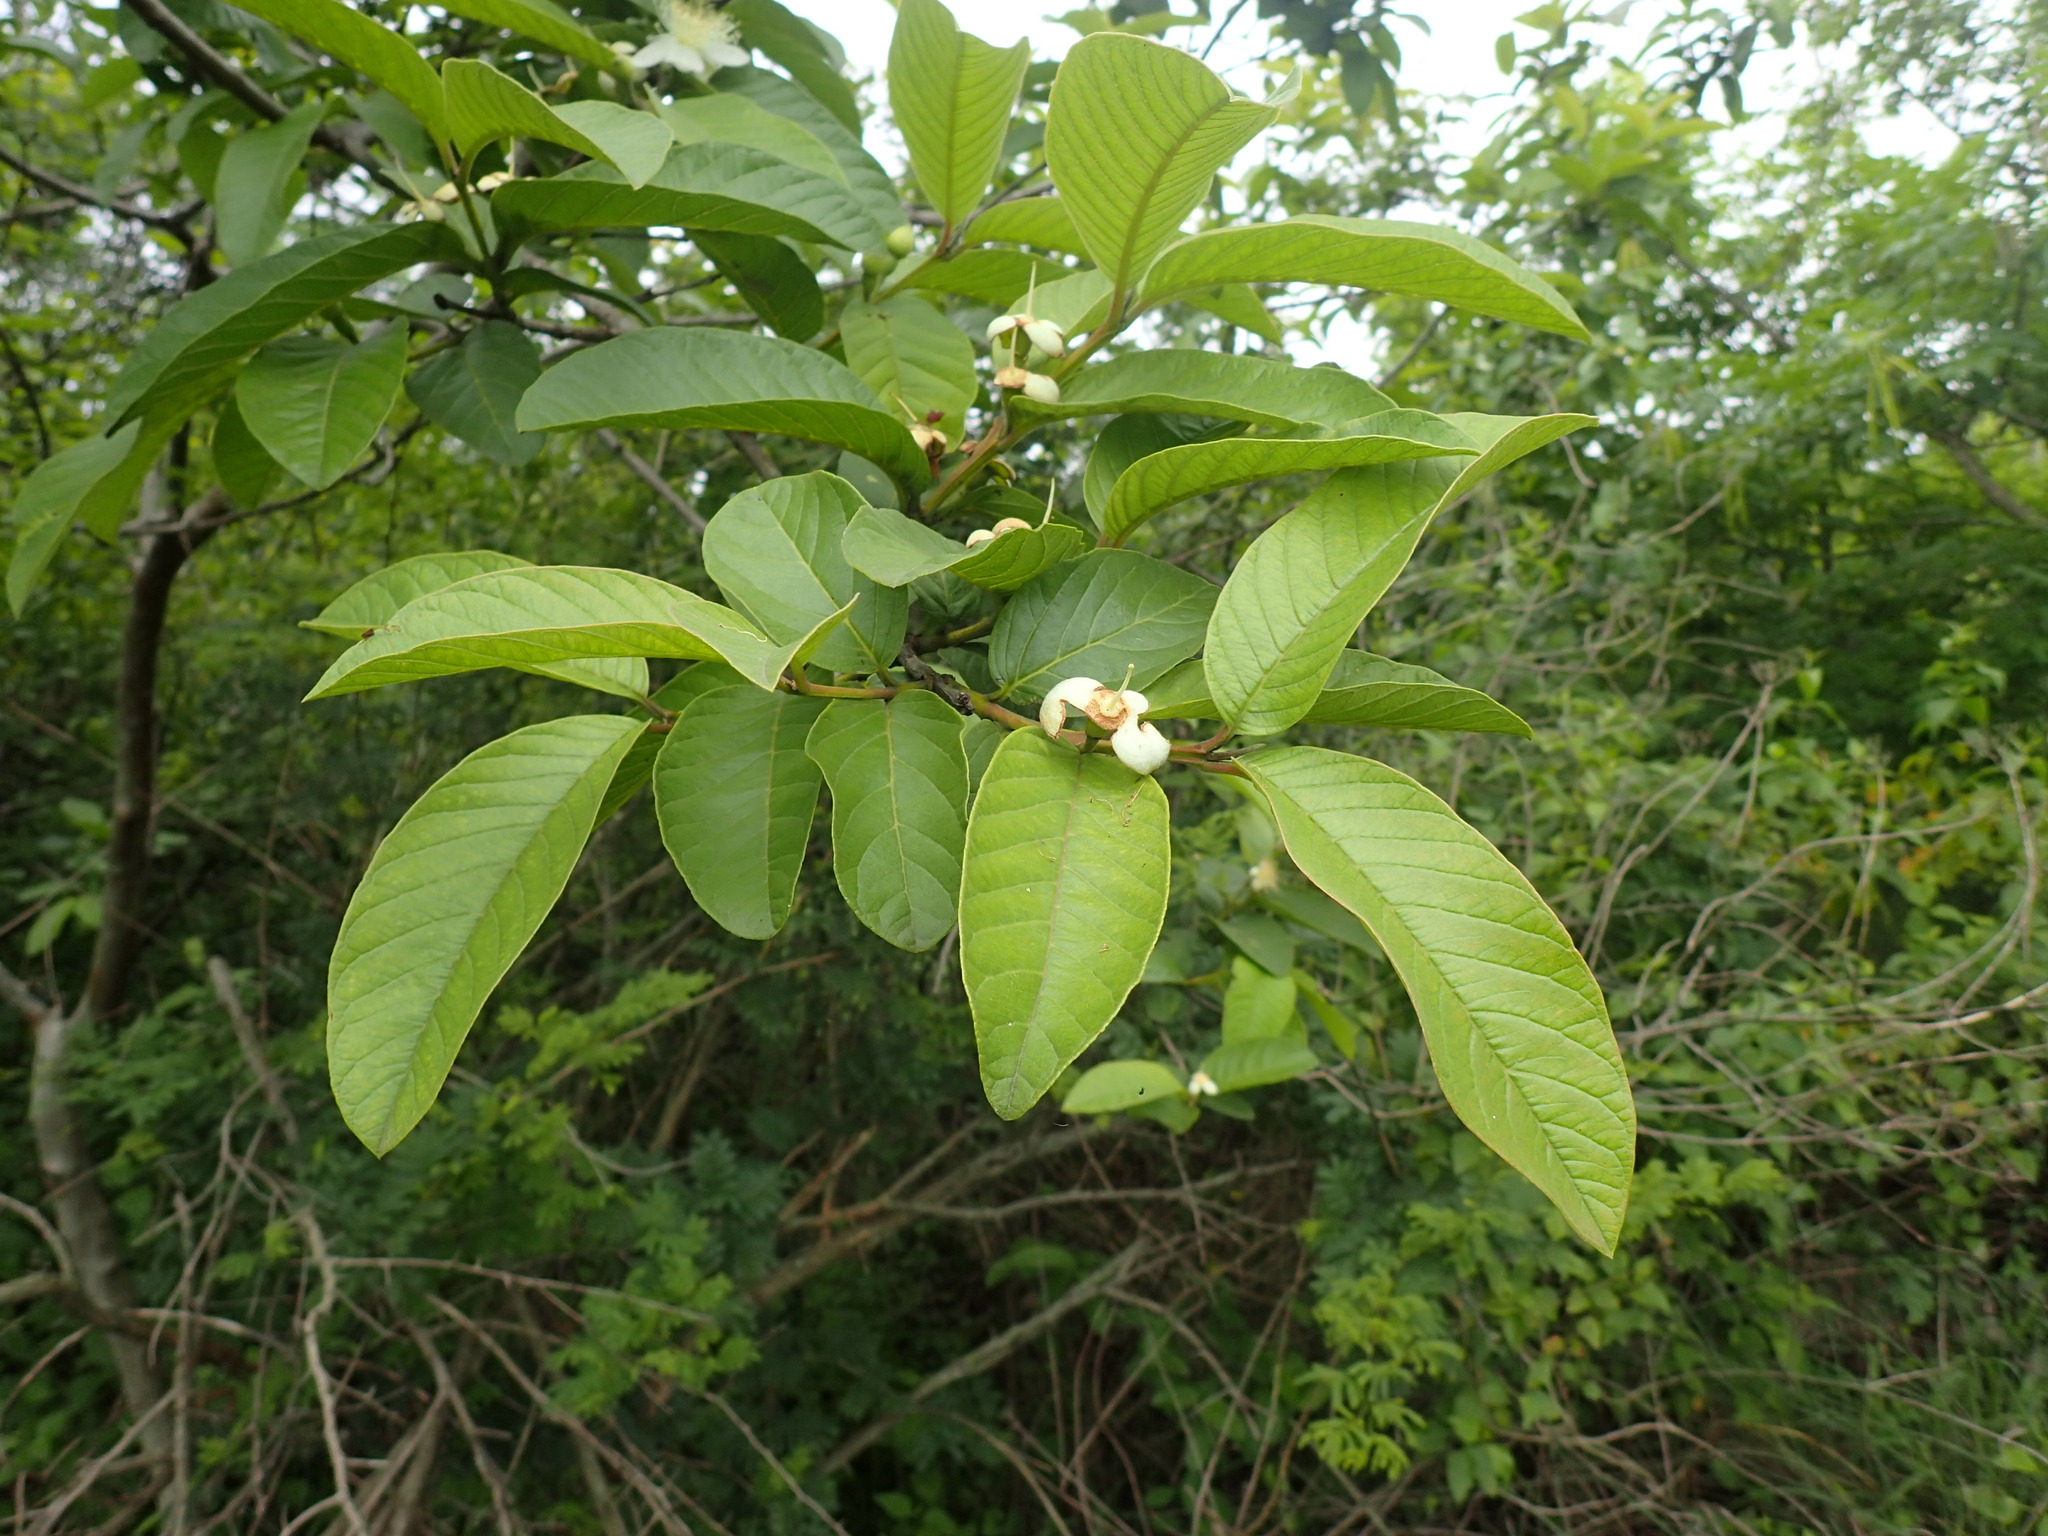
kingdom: Plantae
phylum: Tracheophyta
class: Magnoliopsida
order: Myrtales
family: Myrtaceae
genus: Psidium
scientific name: Psidium guajava
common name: Guava
